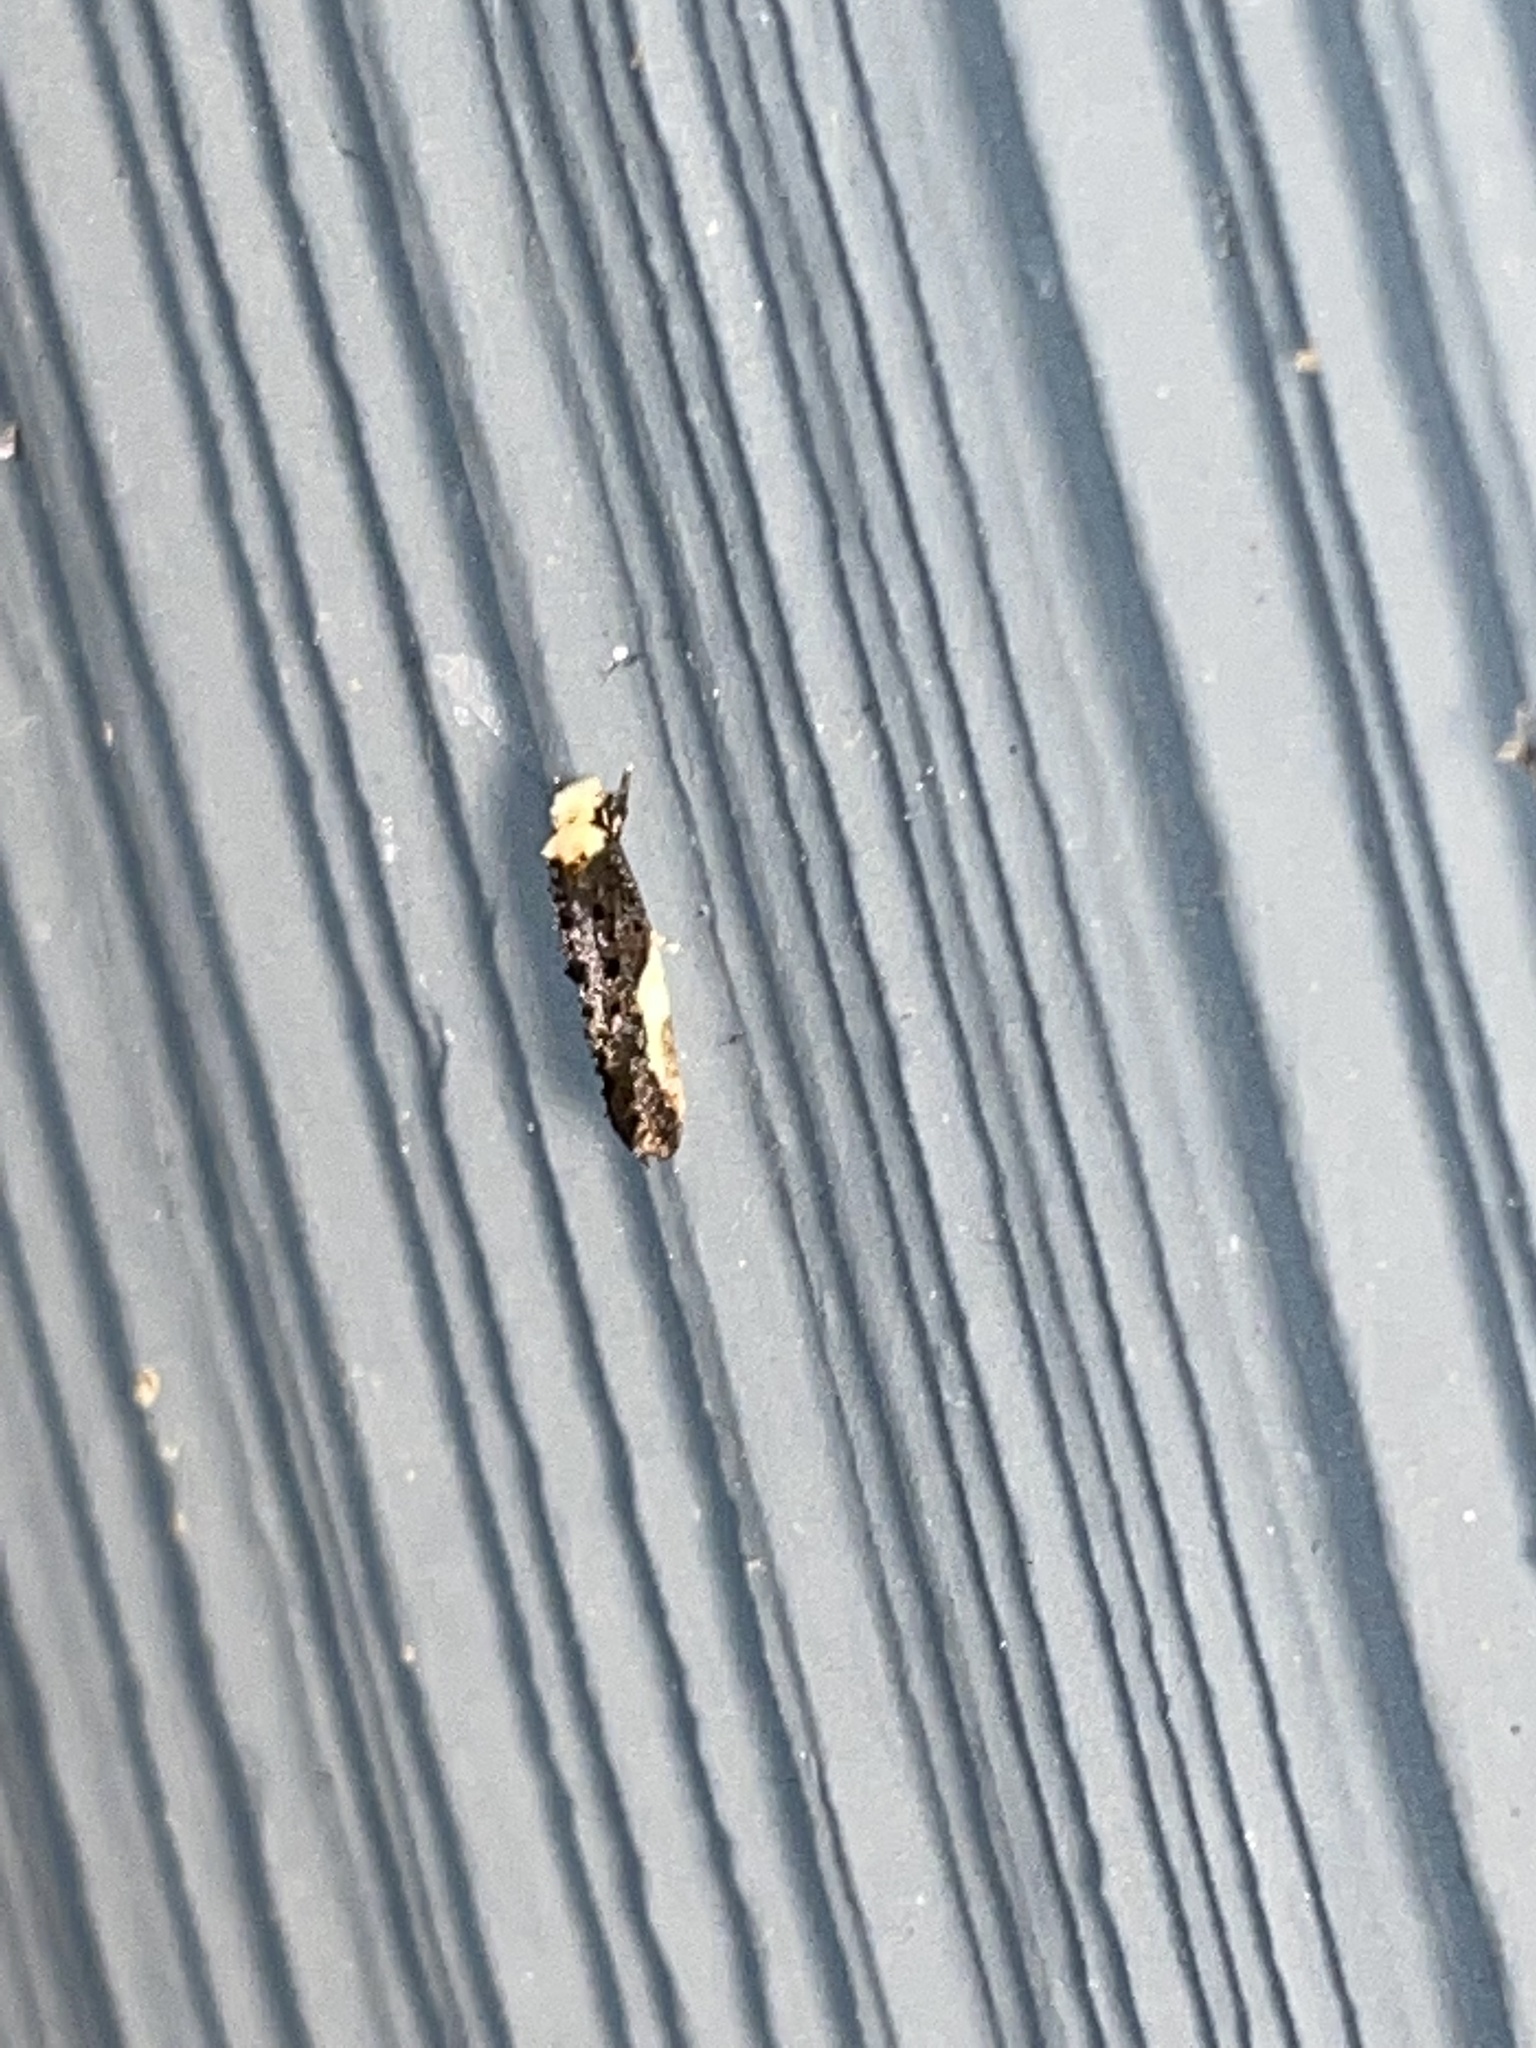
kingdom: Animalia
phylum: Arthropoda
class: Insecta
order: Lepidoptera
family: Tineidae
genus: Monopis
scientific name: Monopis longella
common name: Pavlovski's monopis moth
